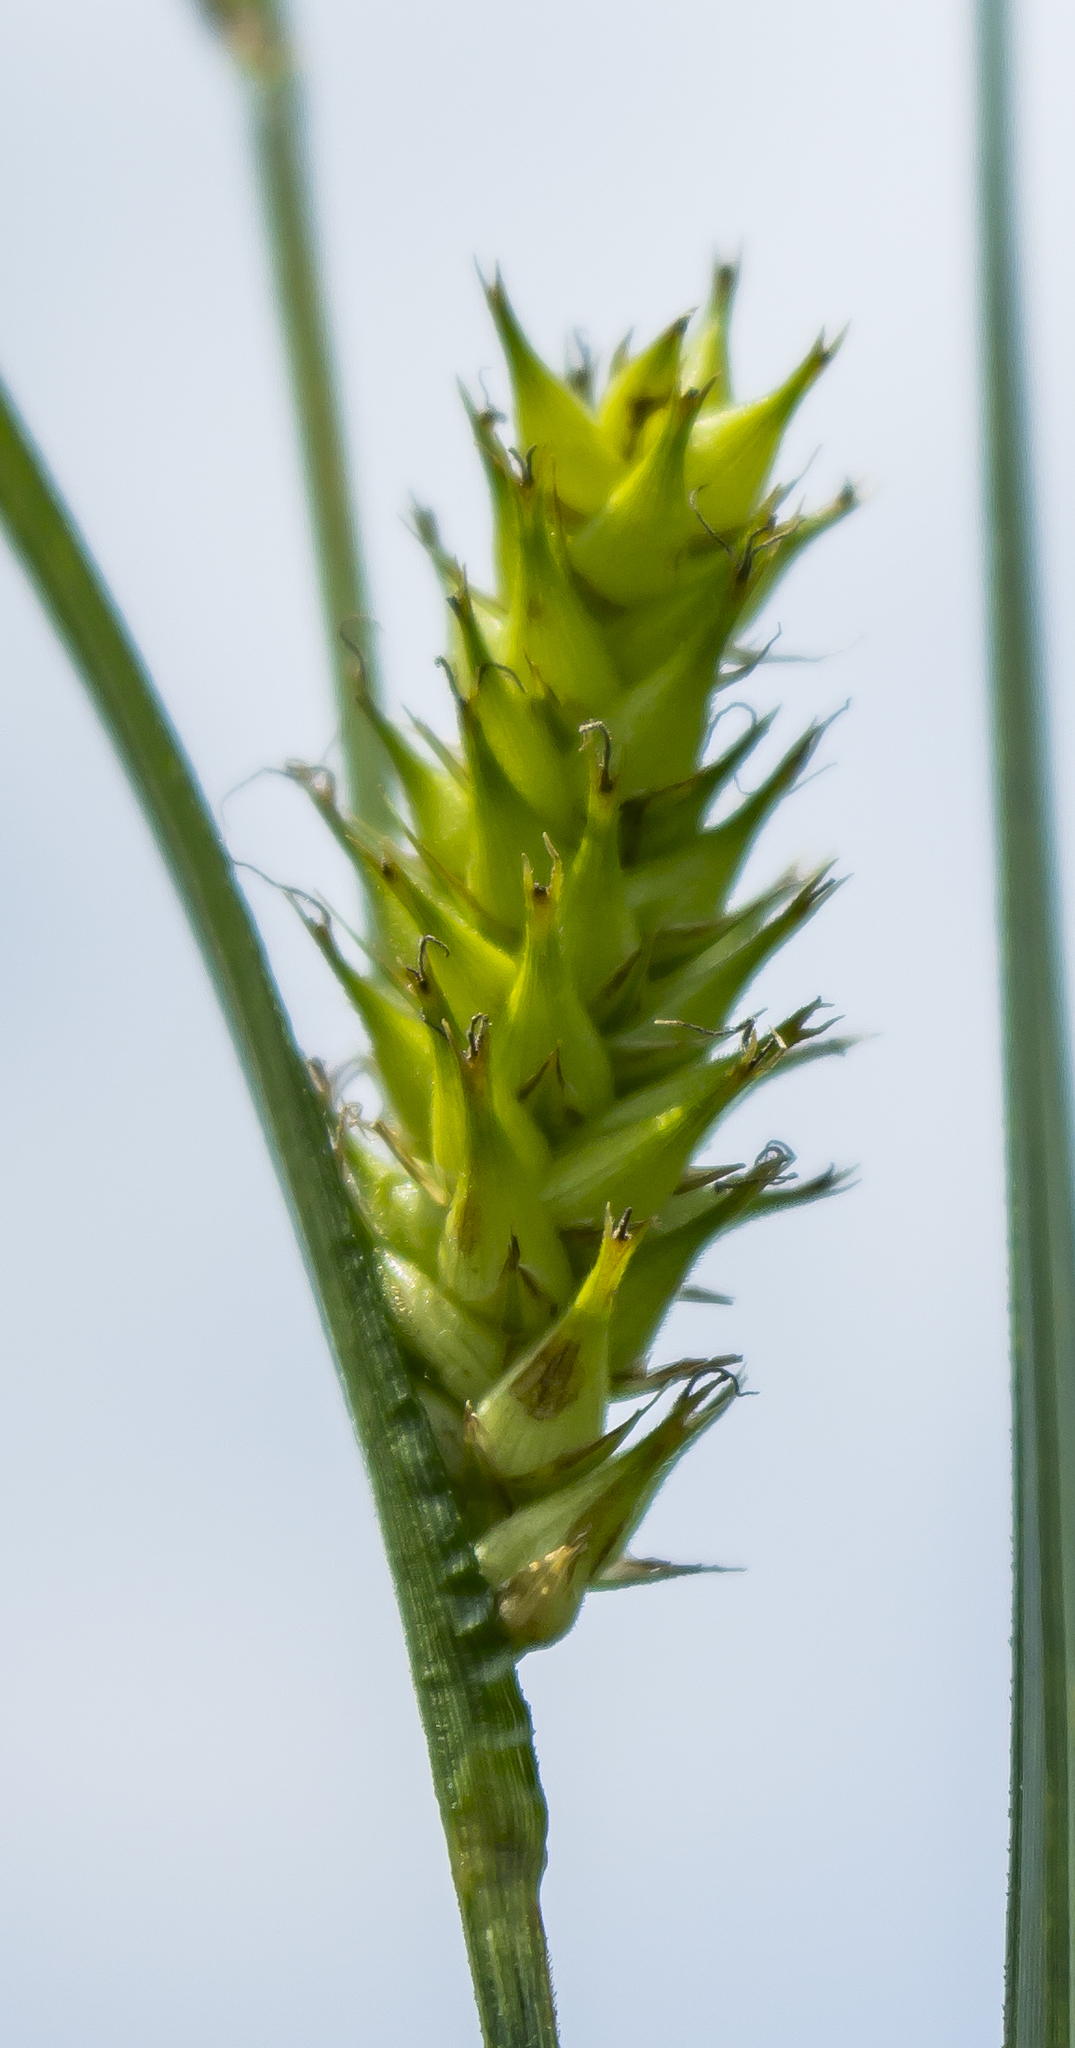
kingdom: Plantae
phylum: Tracheophyta
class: Liliopsida
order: Poales
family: Cyperaceae
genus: Carex
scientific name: Carex trichocarpa
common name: Hairy-fruited lake sedge
